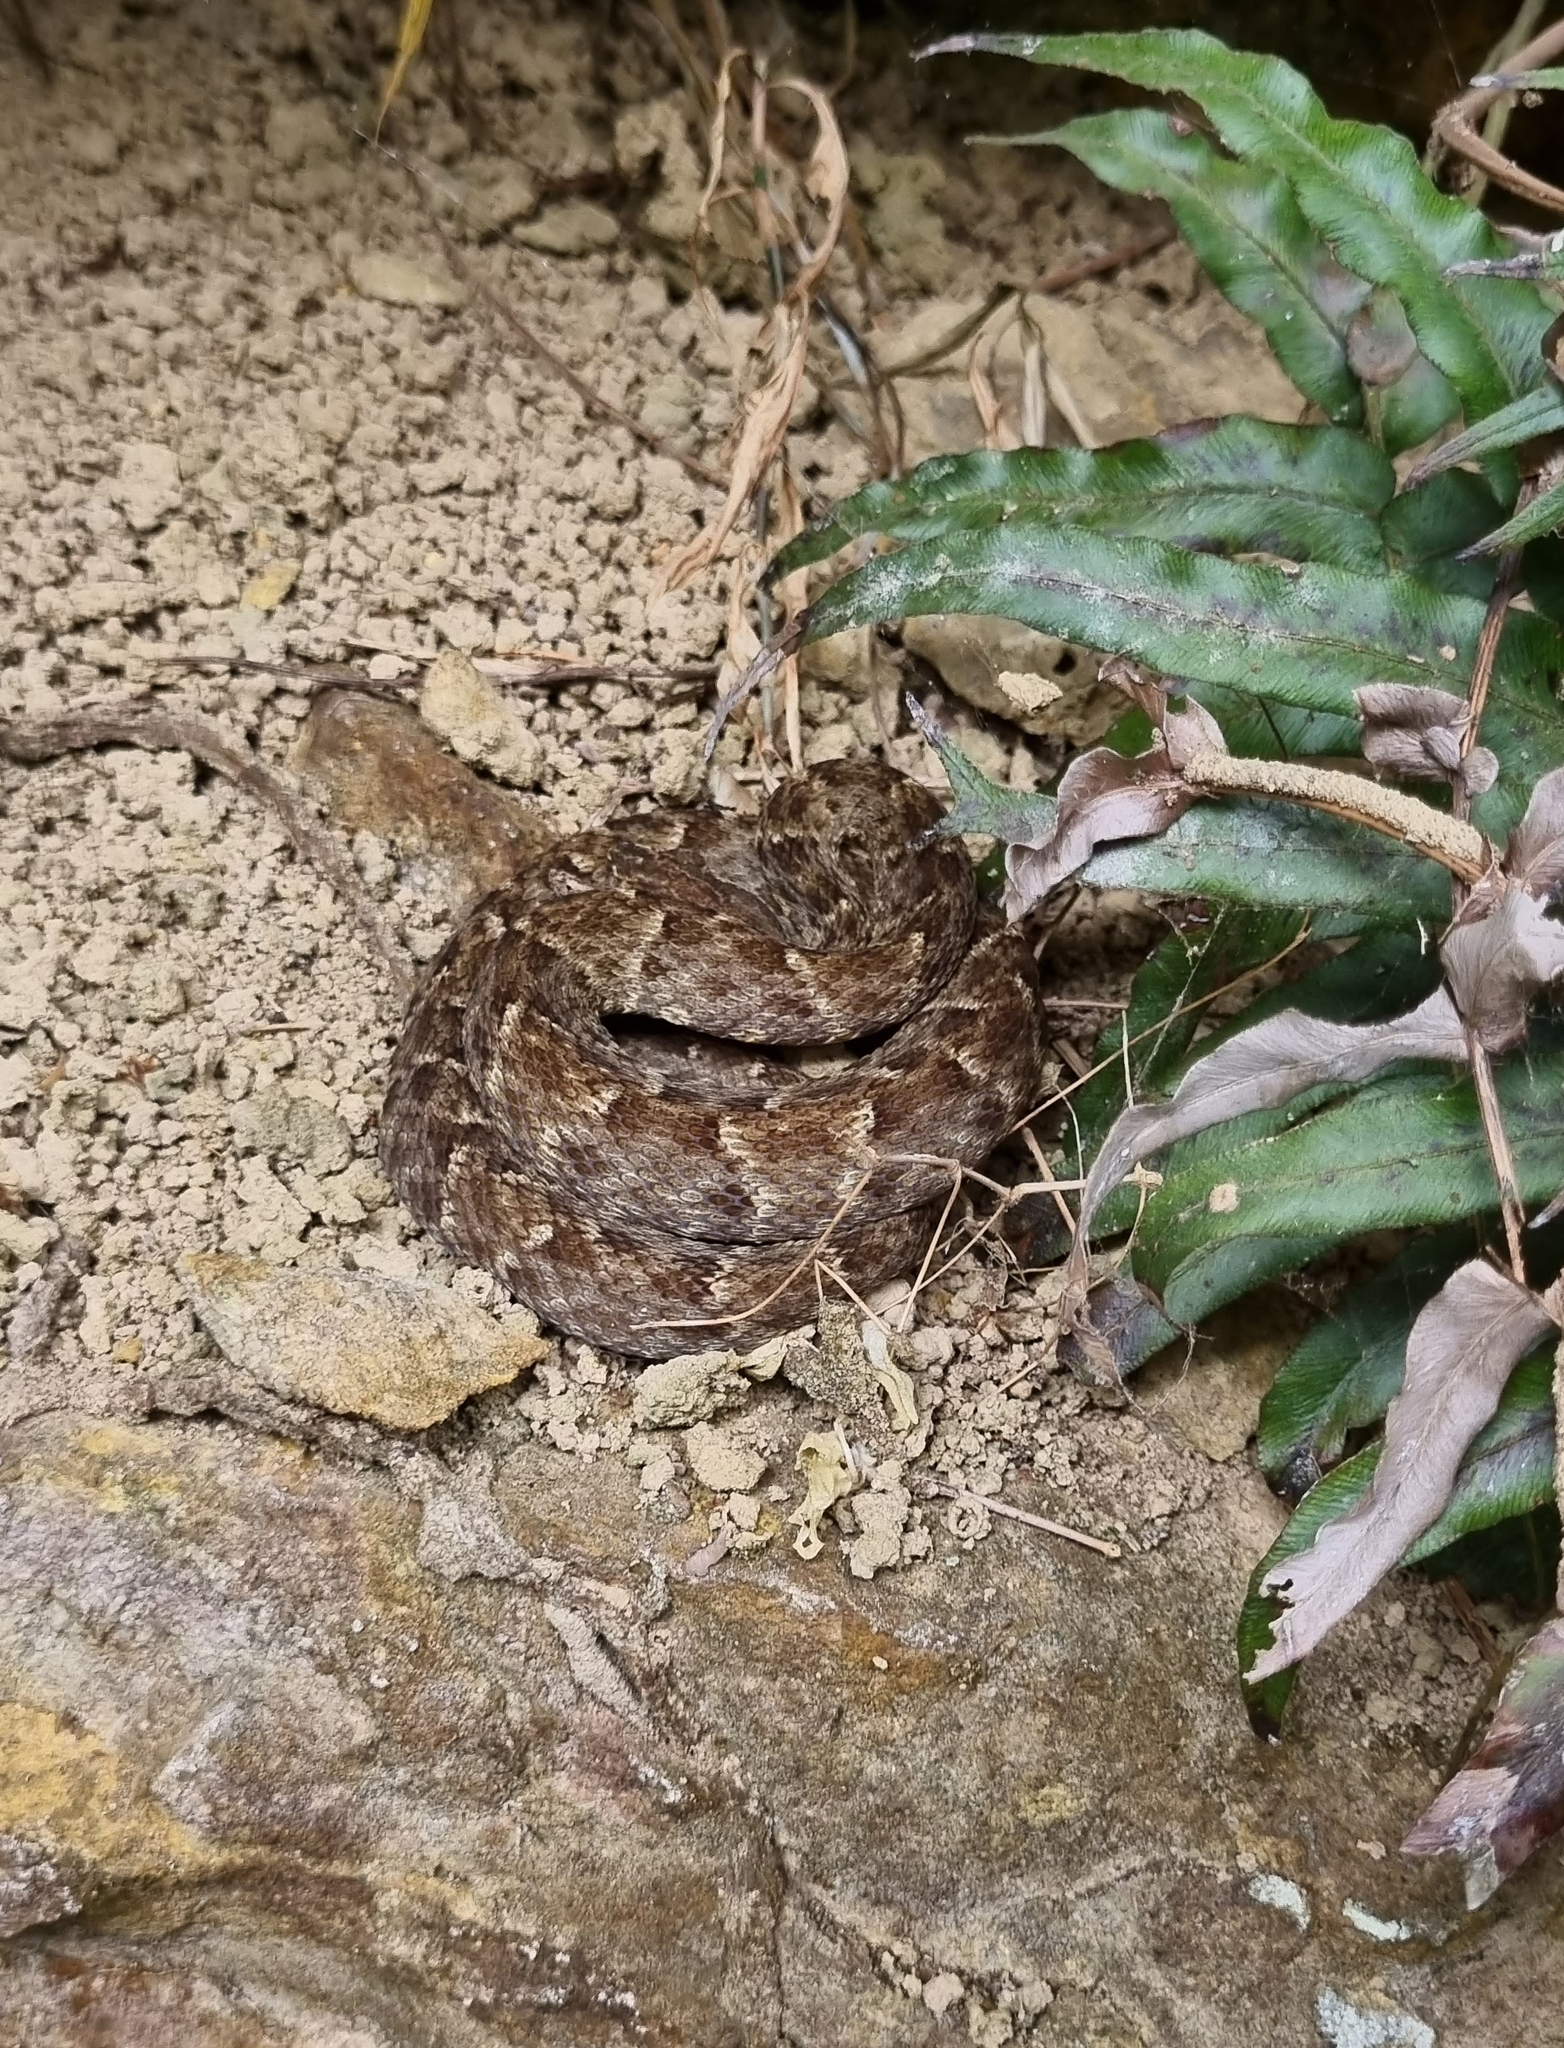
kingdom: Animalia
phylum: Chordata
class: Squamata
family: Viperidae
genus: Bothrops
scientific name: Bothrops atrox
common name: Common lancehead
